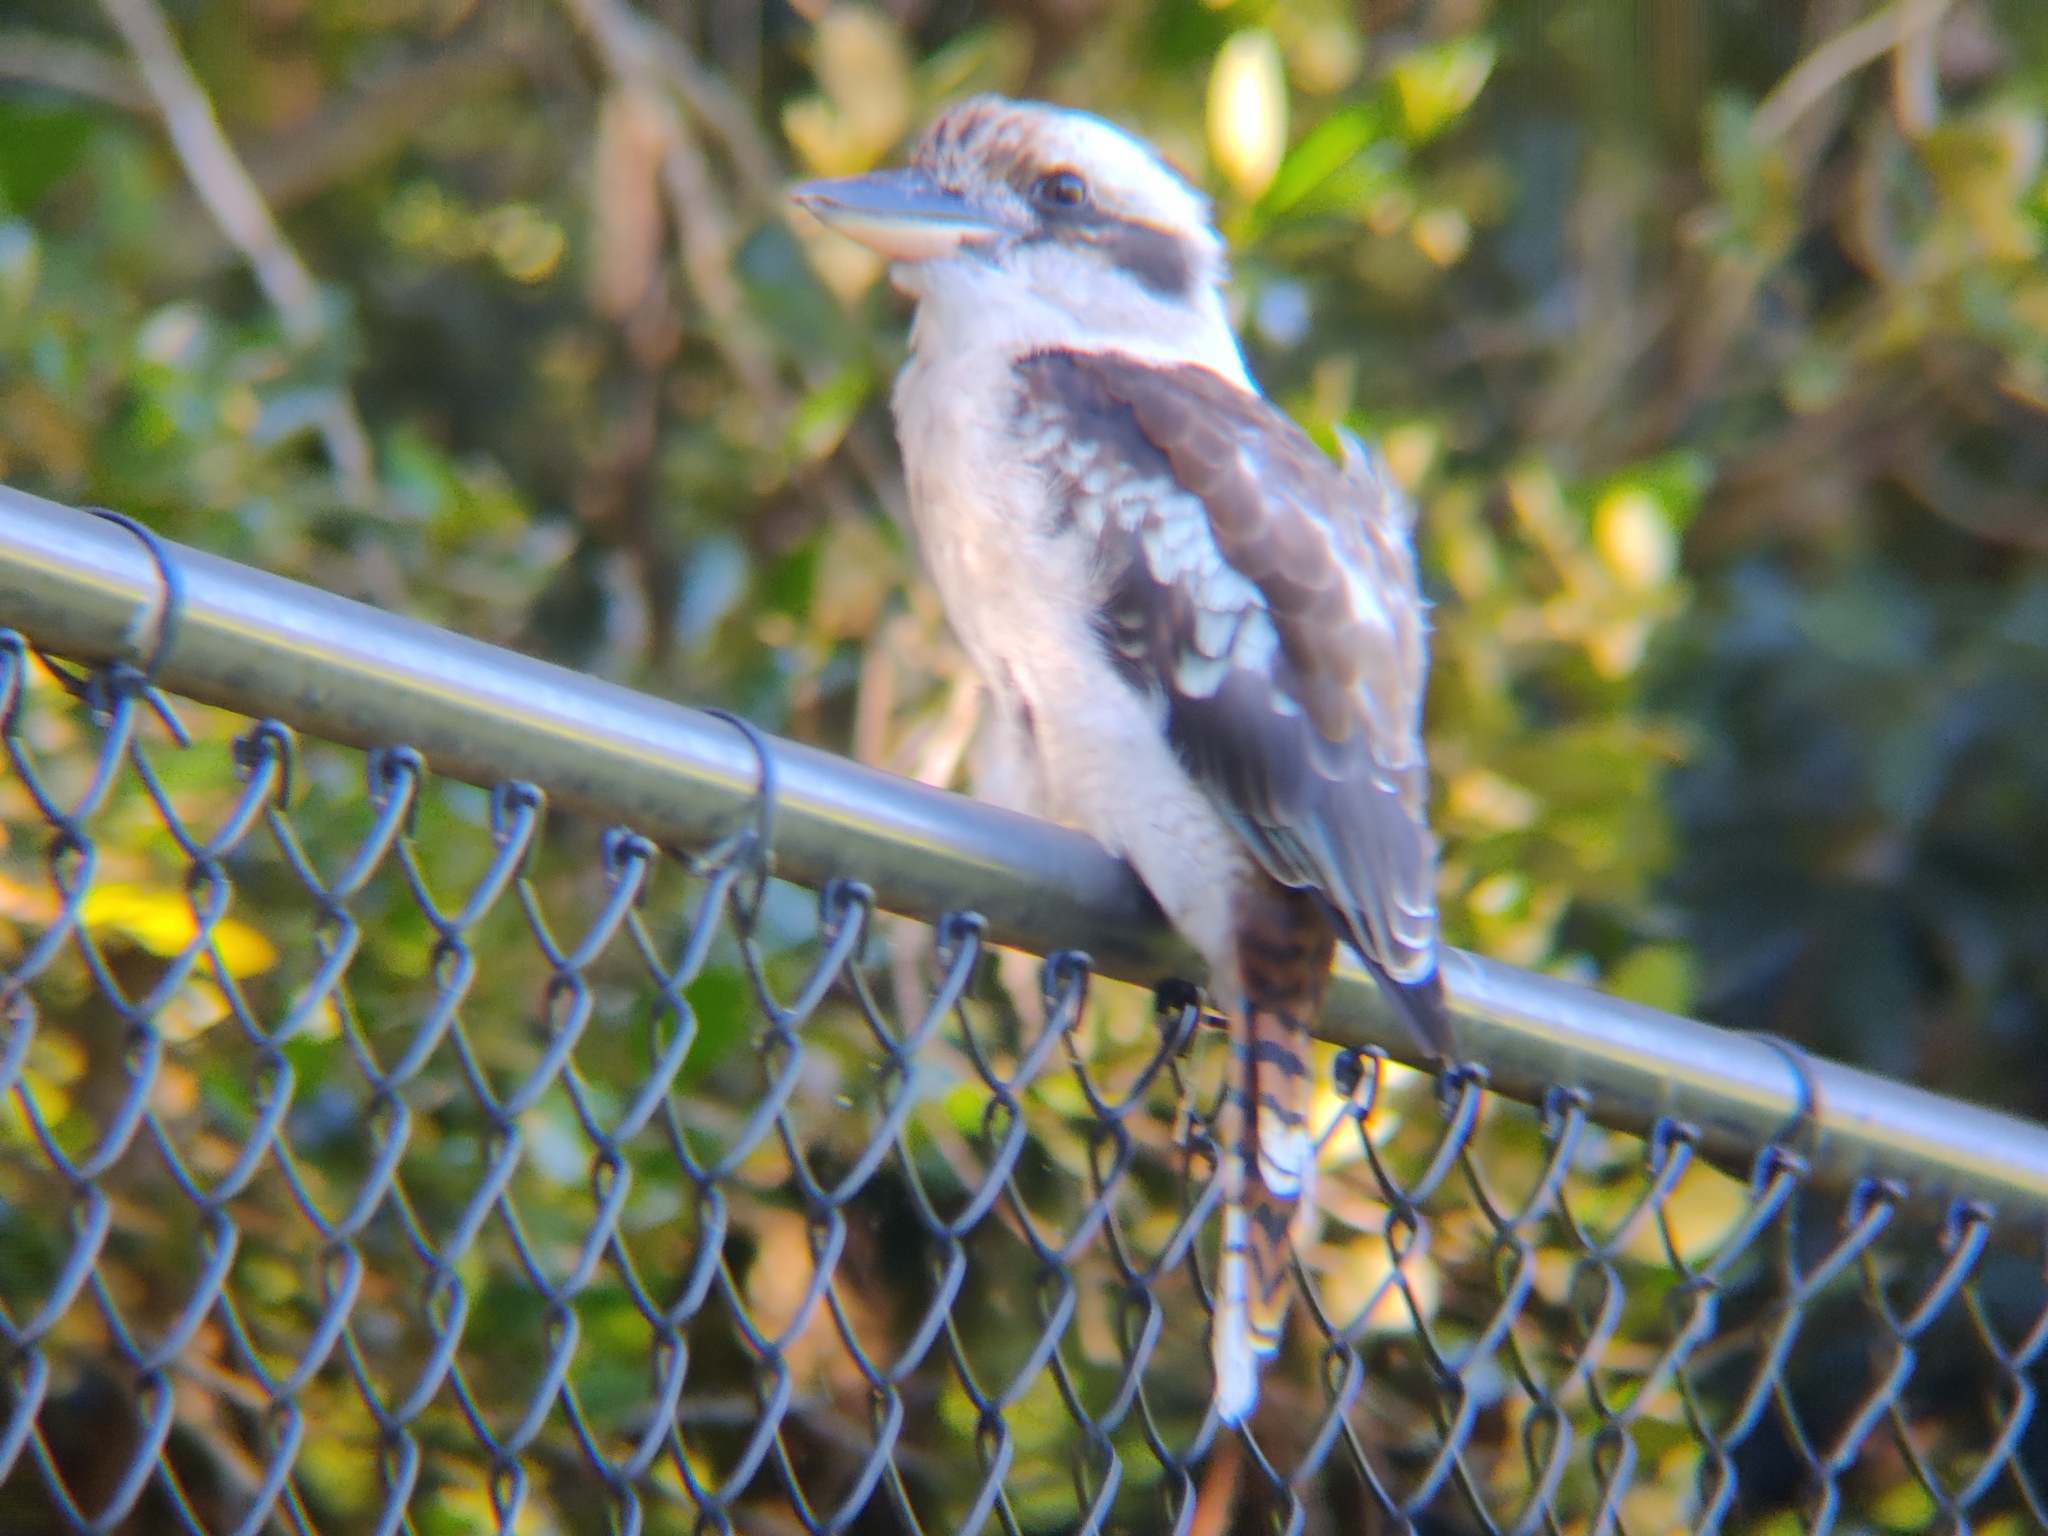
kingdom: Animalia
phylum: Chordata
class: Aves
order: Coraciiformes
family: Alcedinidae
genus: Dacelo
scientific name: Dacelo novaeguineae
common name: Laughing kookaburra
